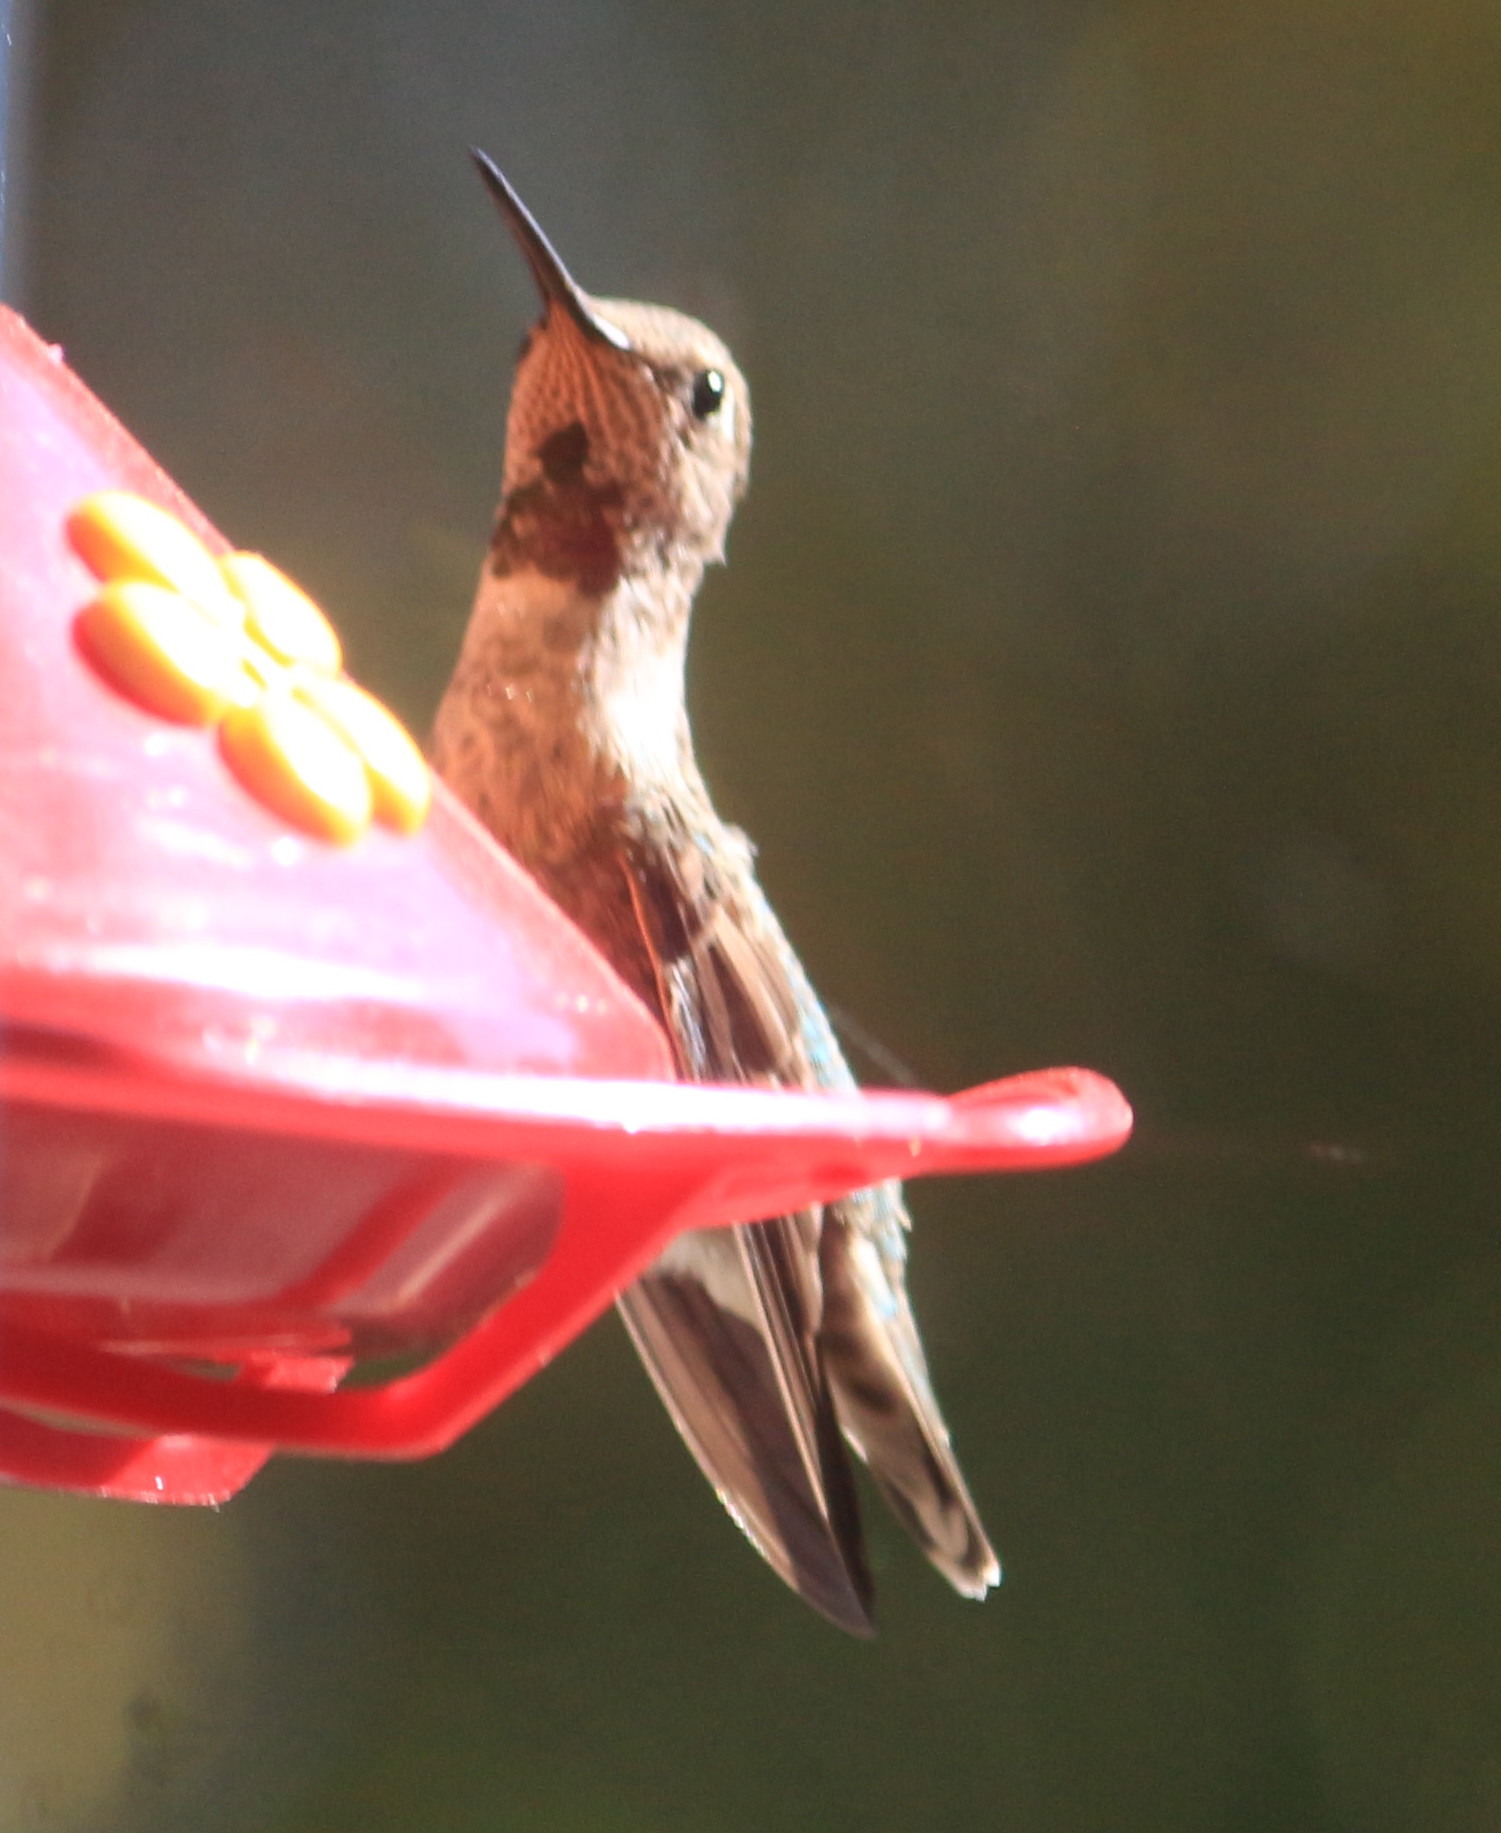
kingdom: Animalia
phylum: Chordata
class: Aves
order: Apodiformes
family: Trochilidae
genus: Calypte
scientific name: Calypte anna
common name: Anna's hummingbird
